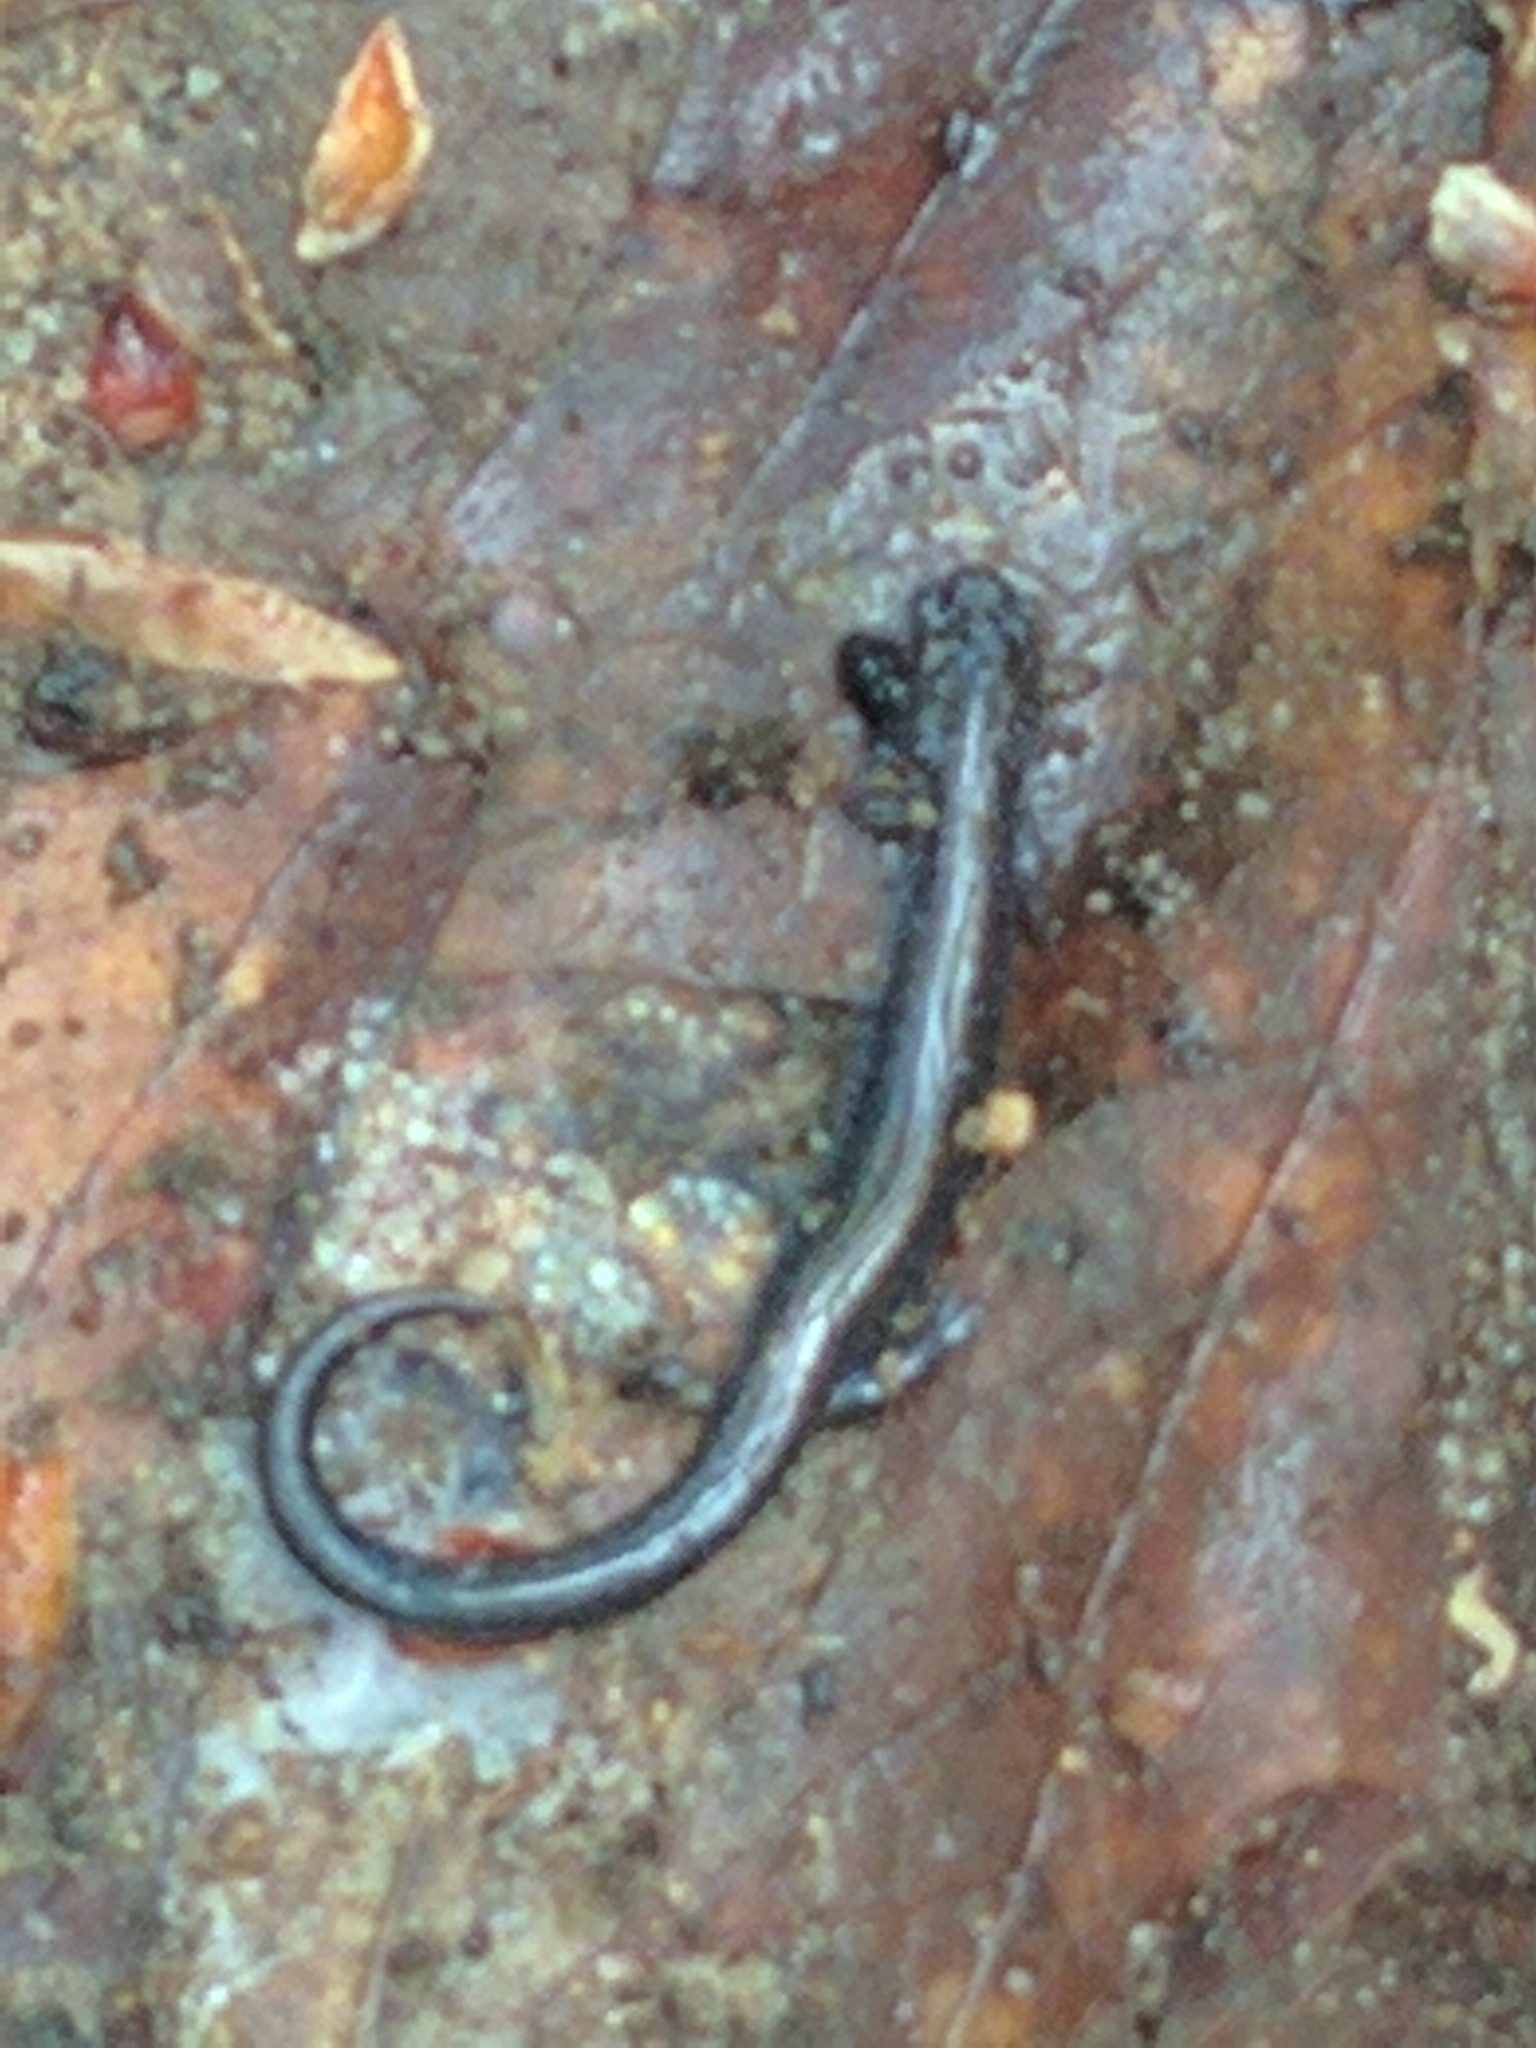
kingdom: Animalia
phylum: Chordata
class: Amphibia
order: Caudata
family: Plethodontidae
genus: Plethodon
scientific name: Plethodon cinereus
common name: Redback salamander
